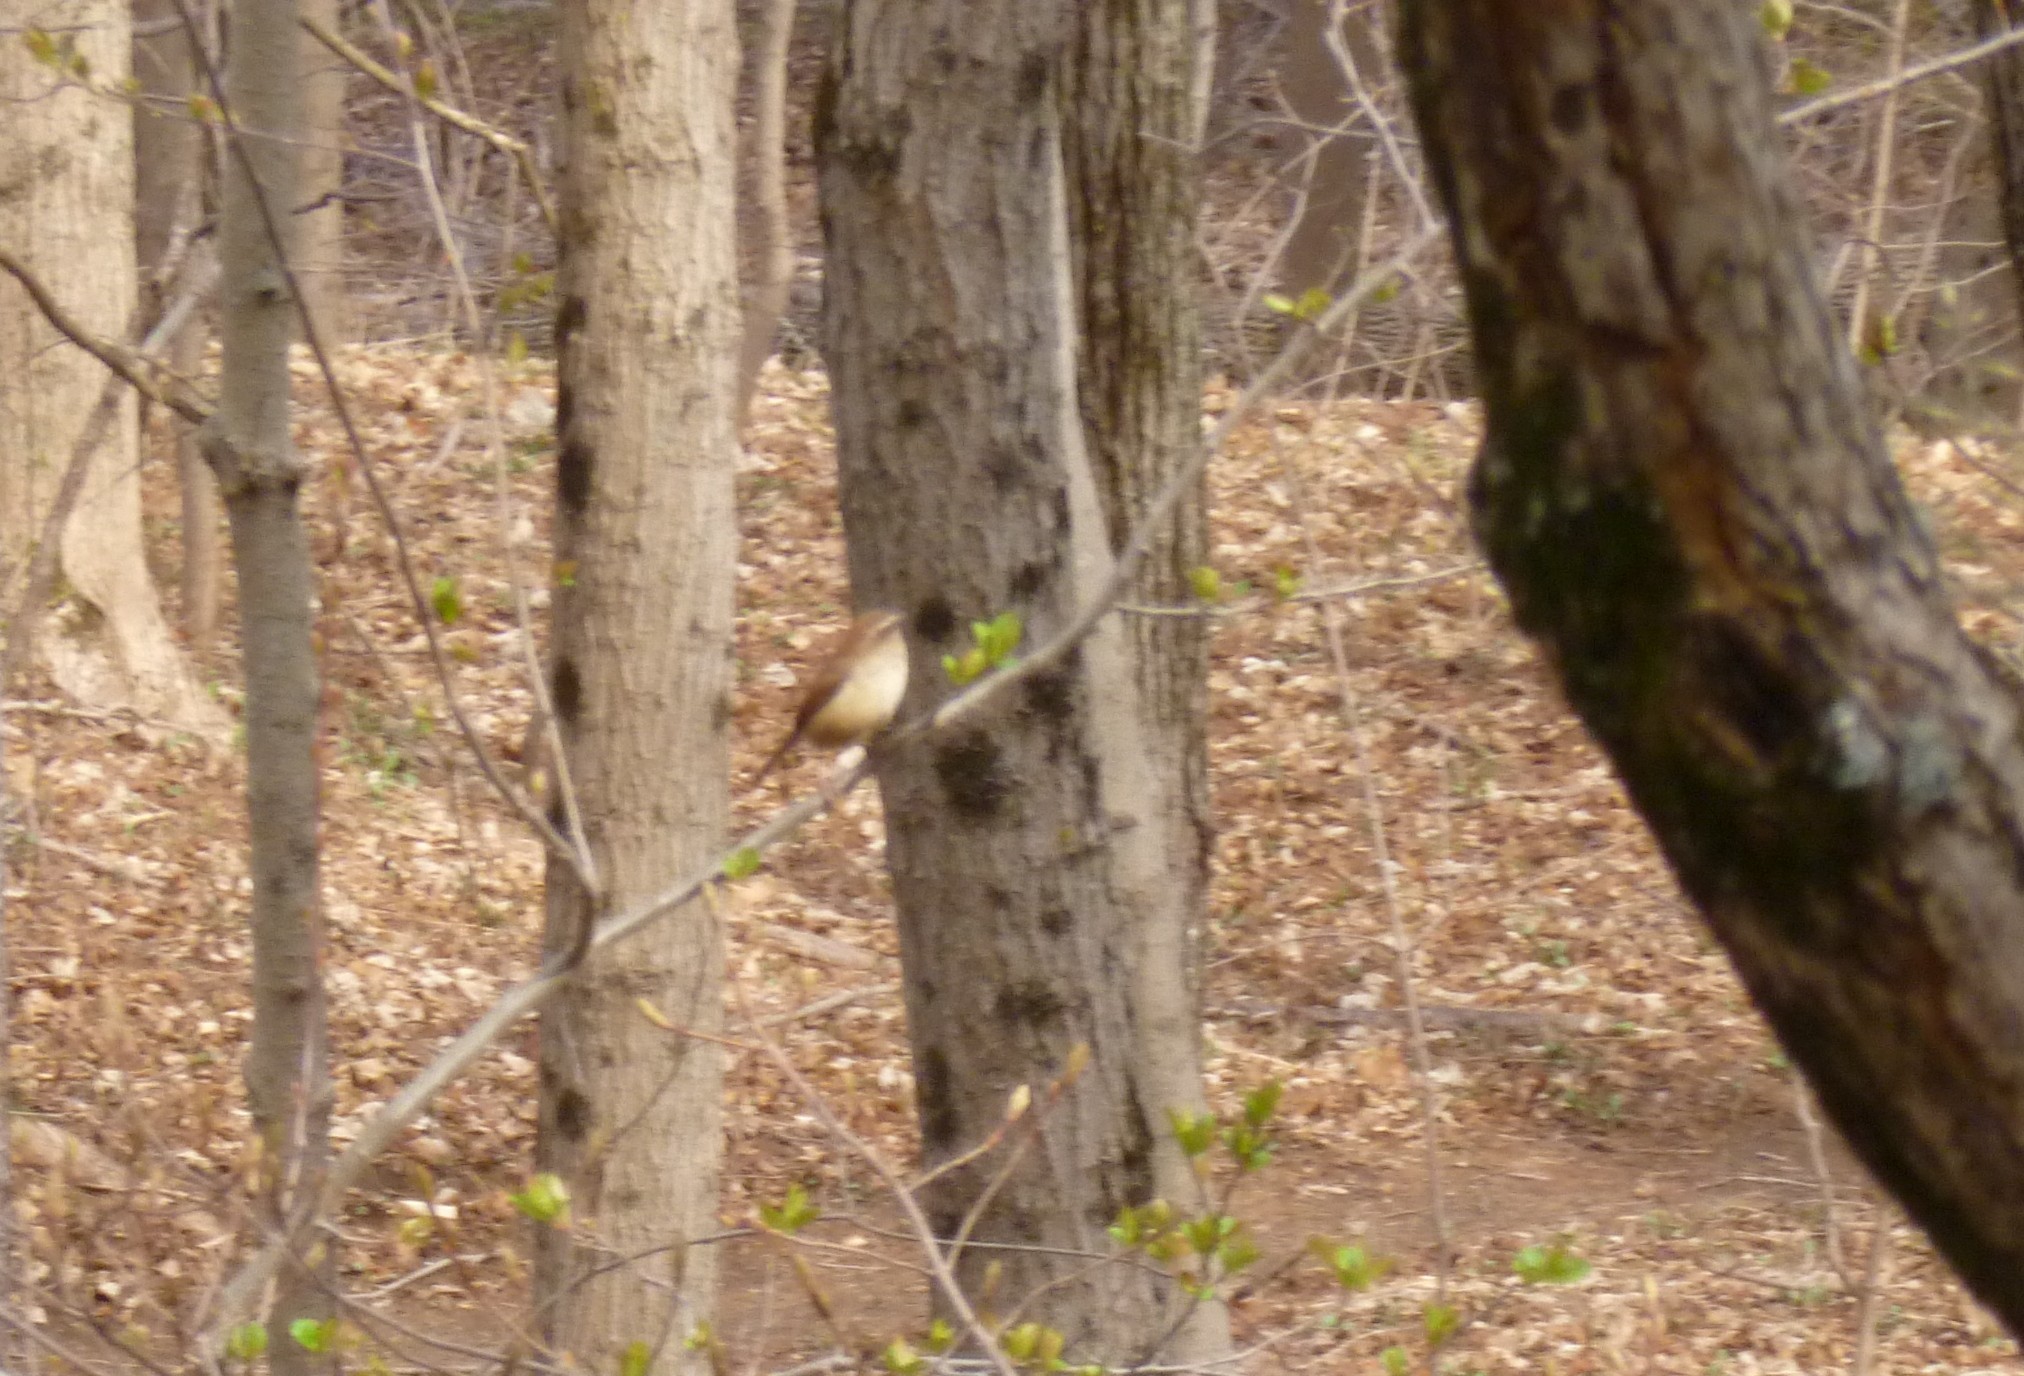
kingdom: Animalia
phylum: Chordata
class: Aves
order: Passeriformes
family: Troglodytidae
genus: Thryothorus
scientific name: Thryothorus ludovicianus
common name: Carolina wren
